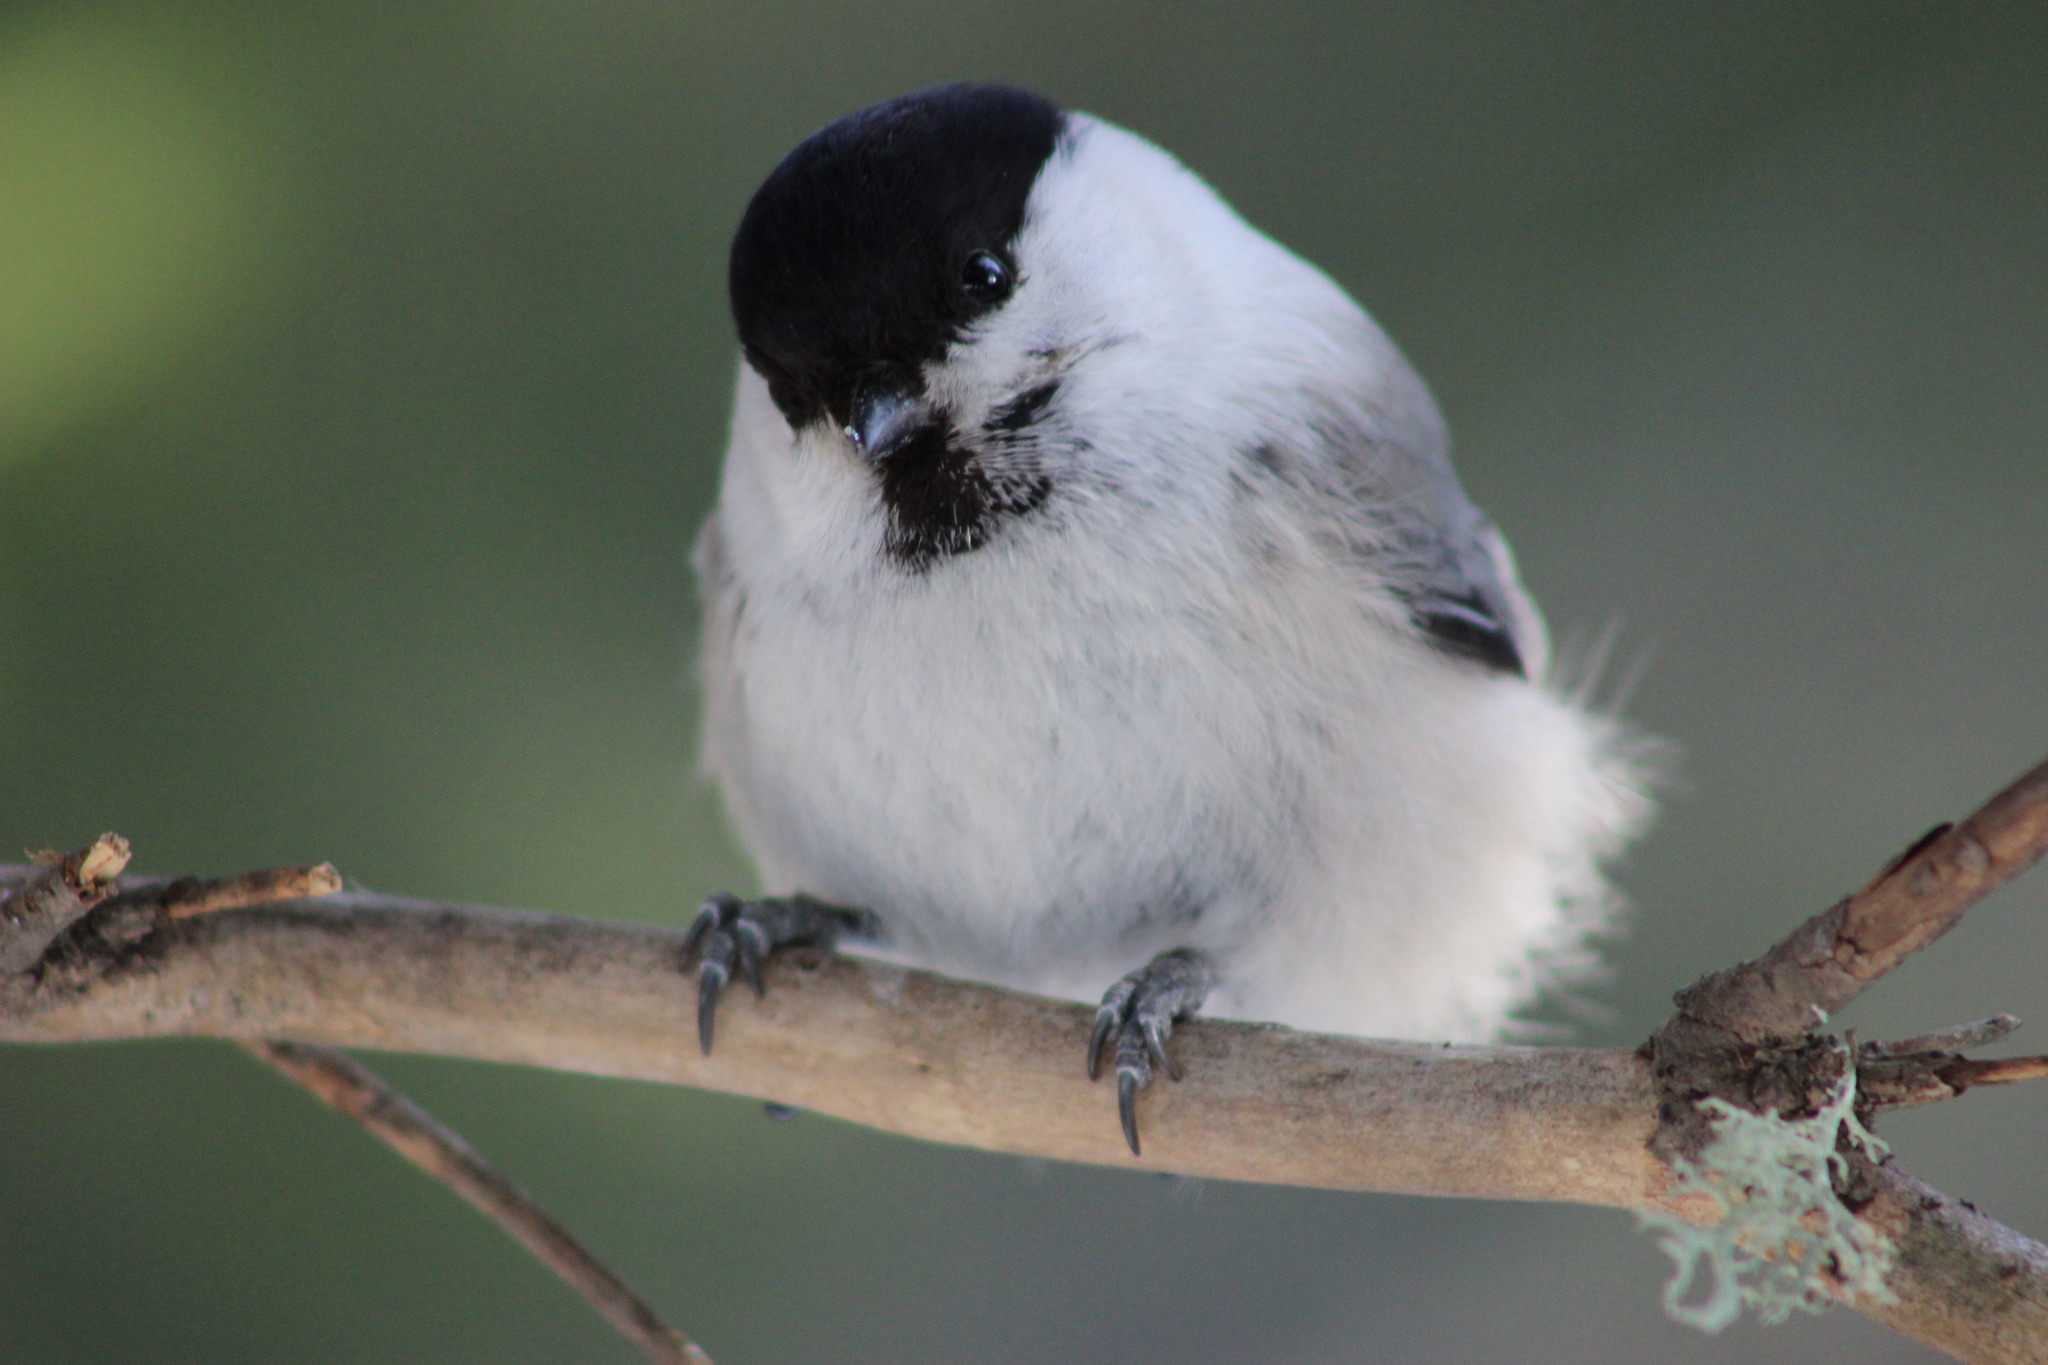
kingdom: Animalia
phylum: Chordata
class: Aves
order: Passeriformes
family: Paridae
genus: Poecile
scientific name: Poecile montanus
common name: Willow tit
